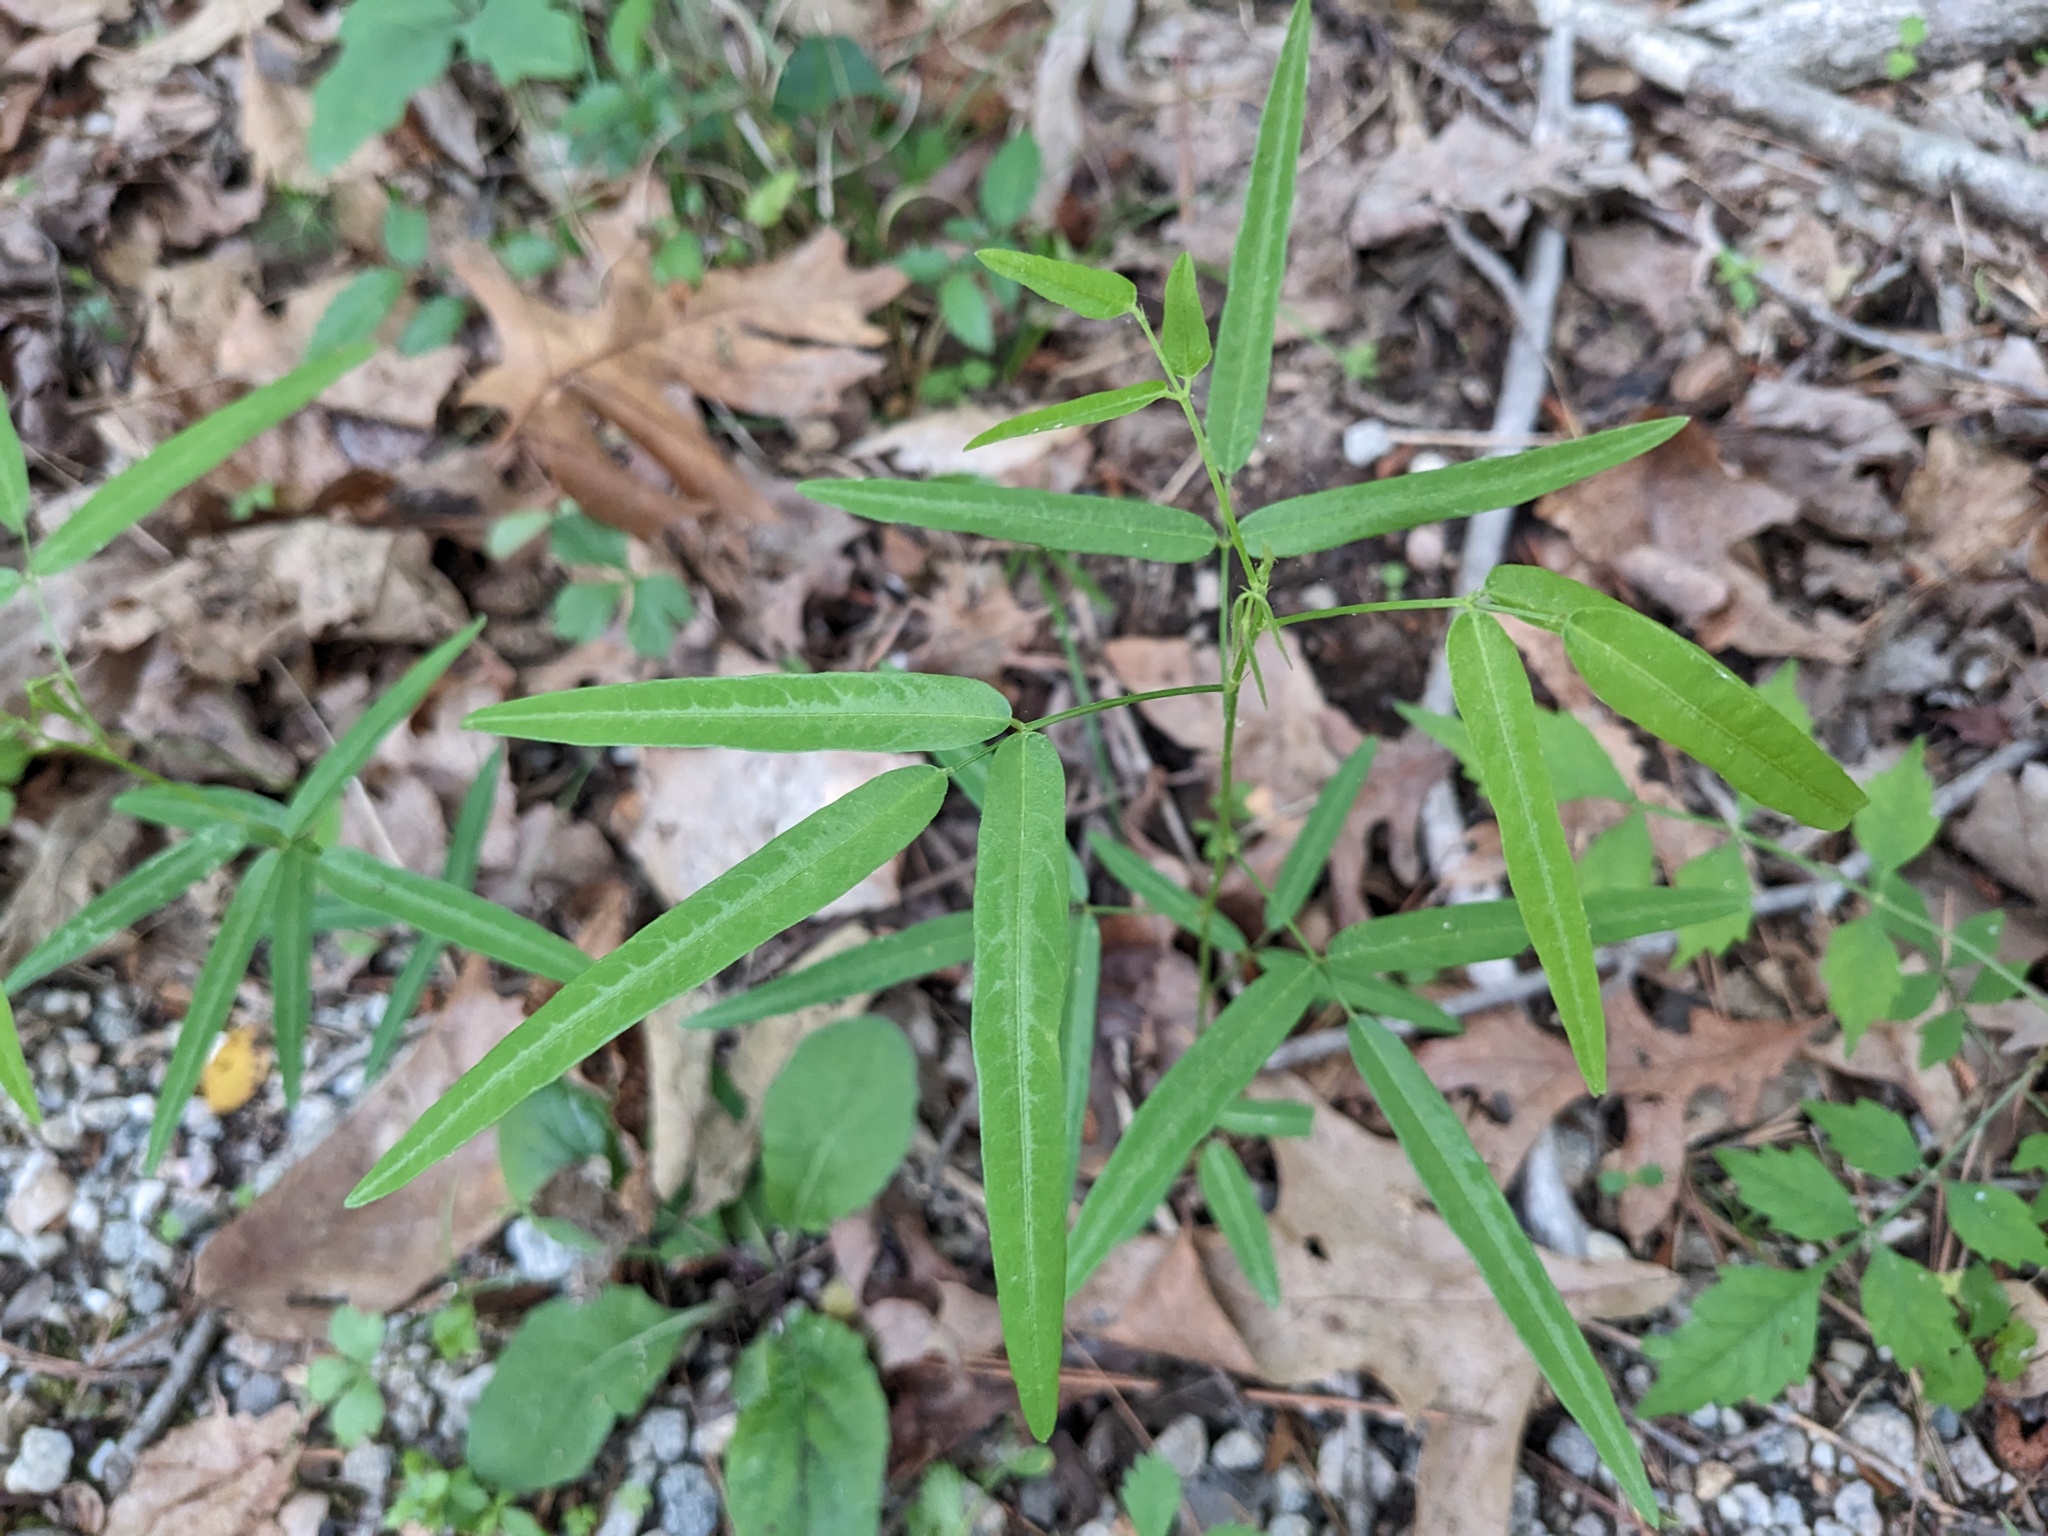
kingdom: Plantae
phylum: Tracheophyta
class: Magnoliopsida
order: Fabales
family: Fabaceae
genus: Desmodium
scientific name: Desmodium paniculatum
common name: Panicled tick-clover
